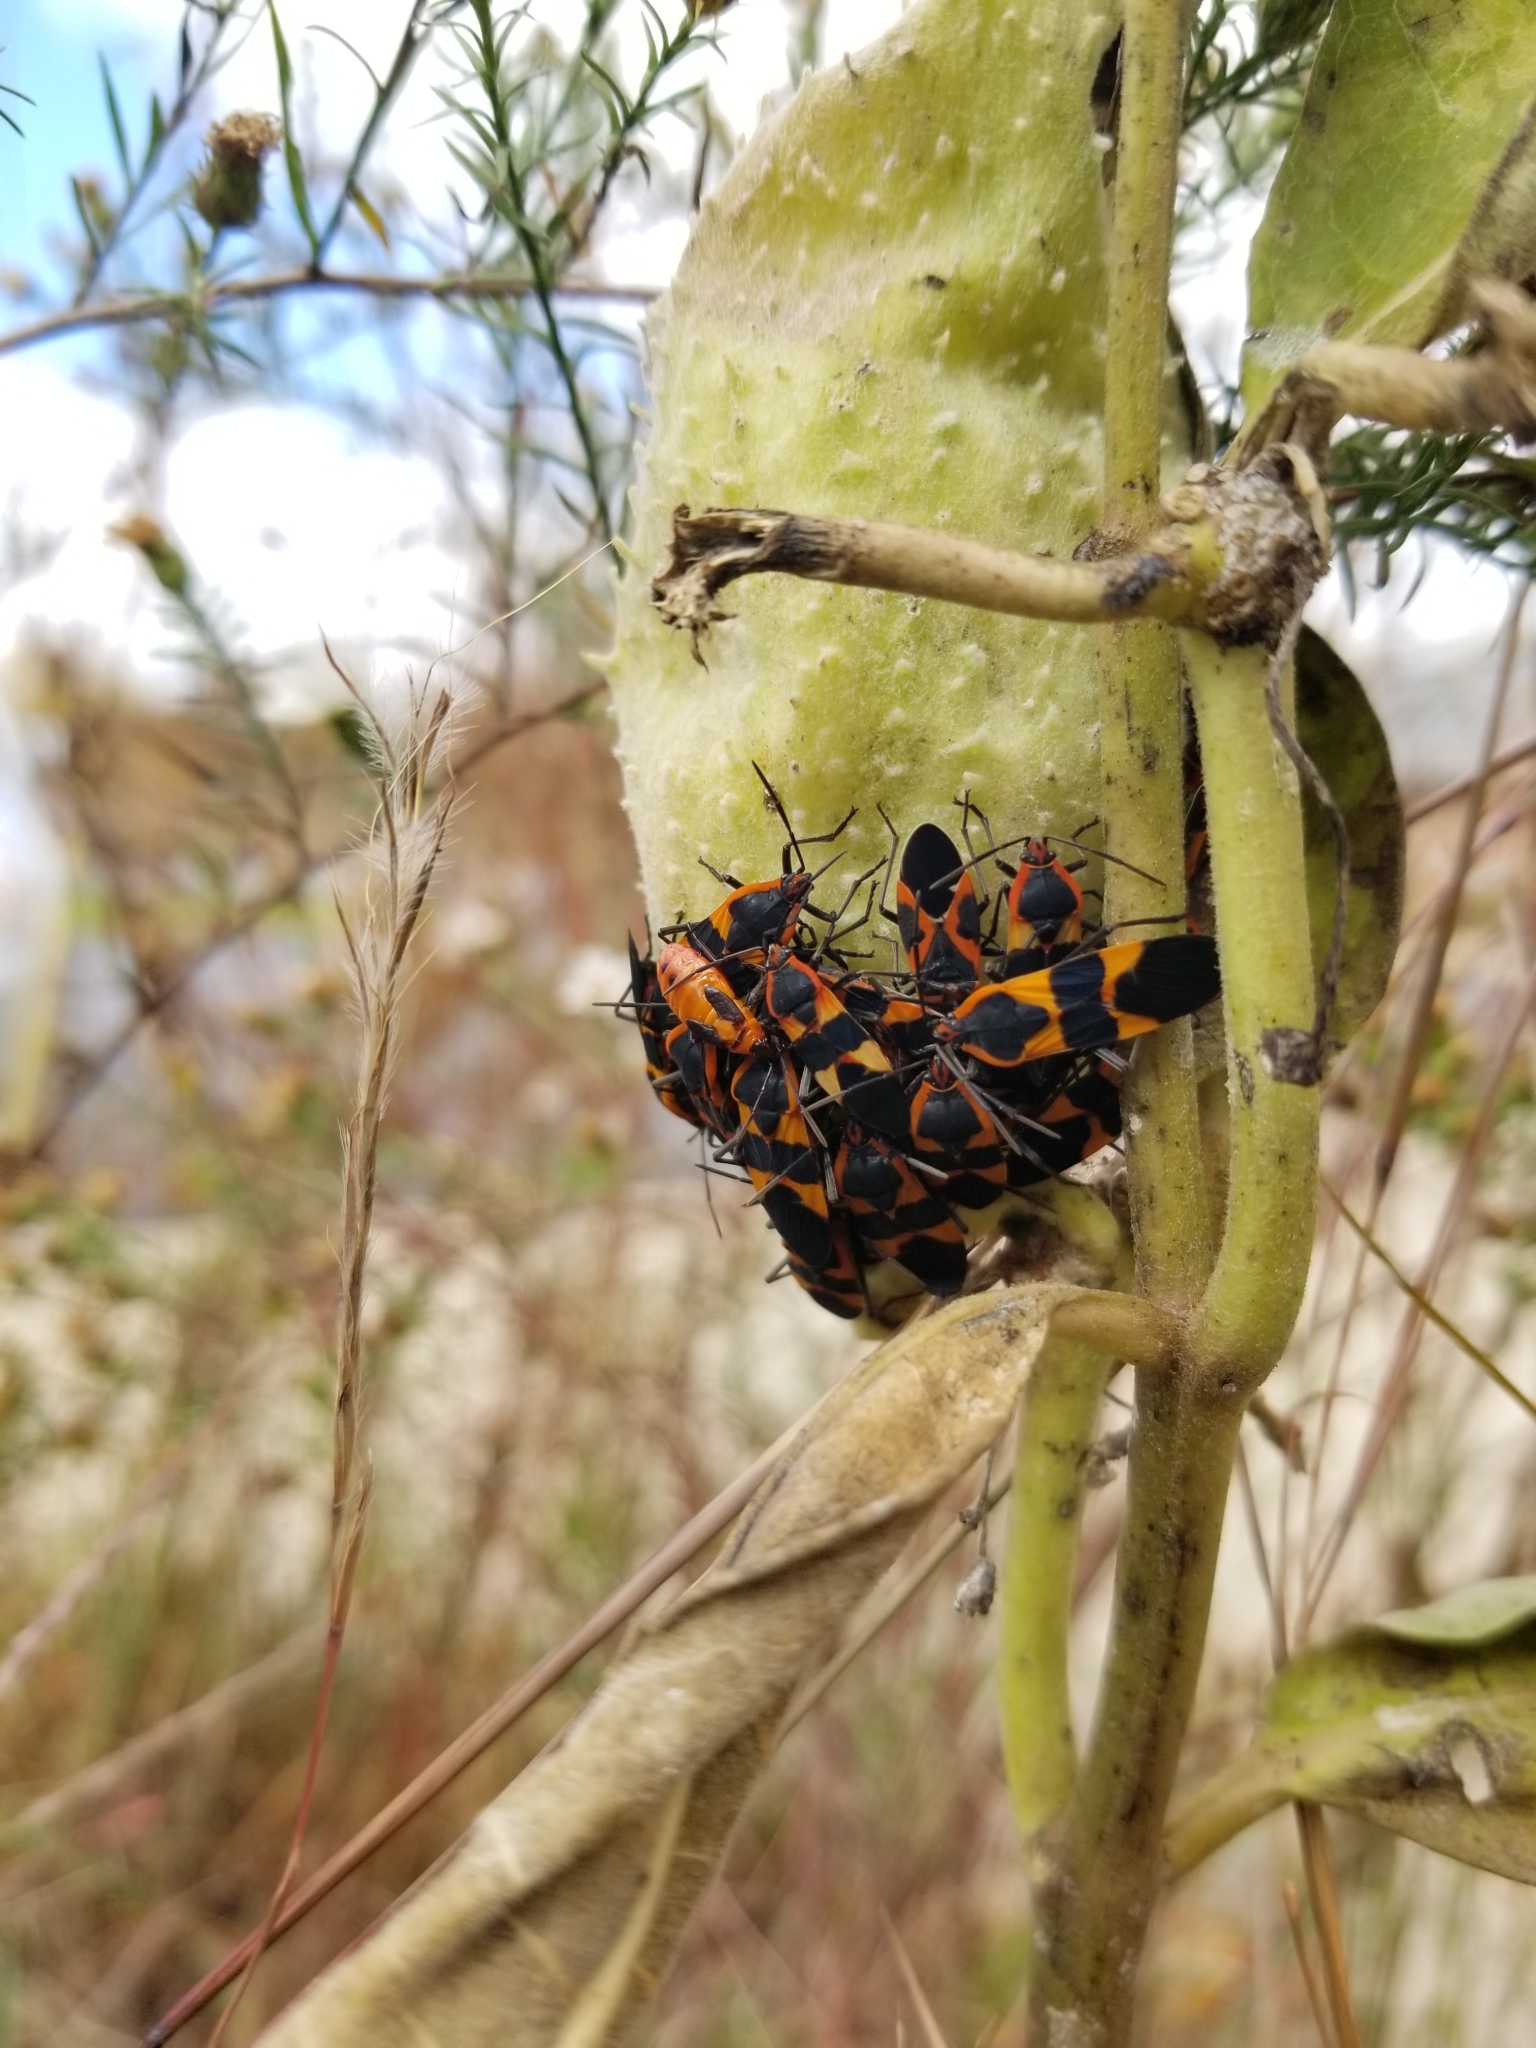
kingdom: Animalia
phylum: Arthropoda
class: Insecta
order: Hemiptera
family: Lygaeidae
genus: Oncopeltus
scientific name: Oncopeltus fasciatus
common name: Large milkweed bug
